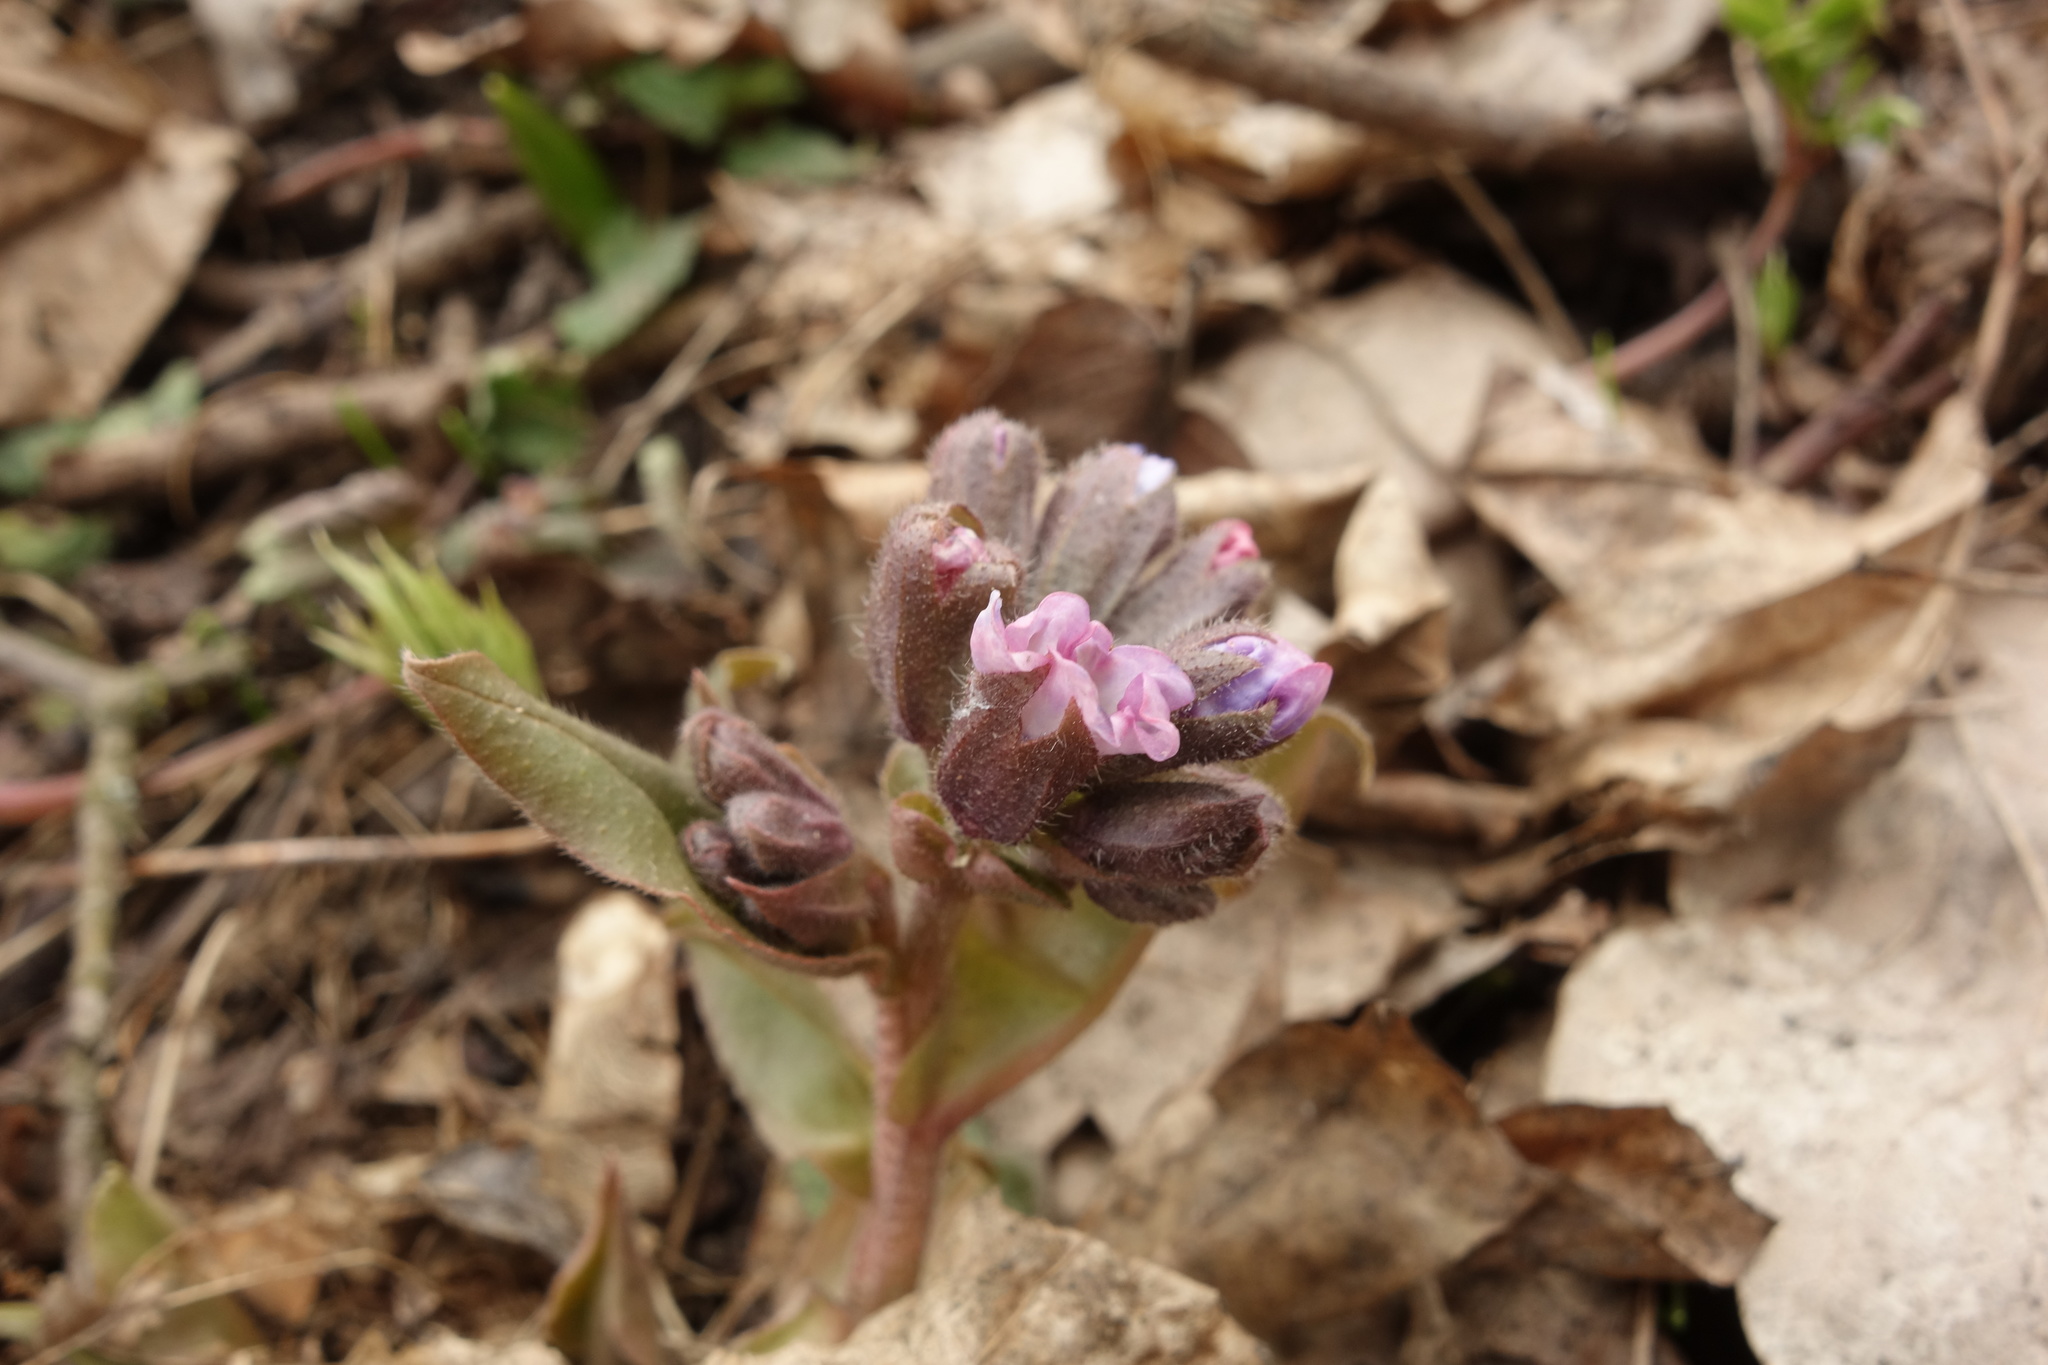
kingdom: Plantae
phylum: Tracheophyta
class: Magnoliopsida
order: Boraginales
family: Boraginaceae
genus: Pulmonaria
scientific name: Pulmonaria obscura
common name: Suffolk lungwort
